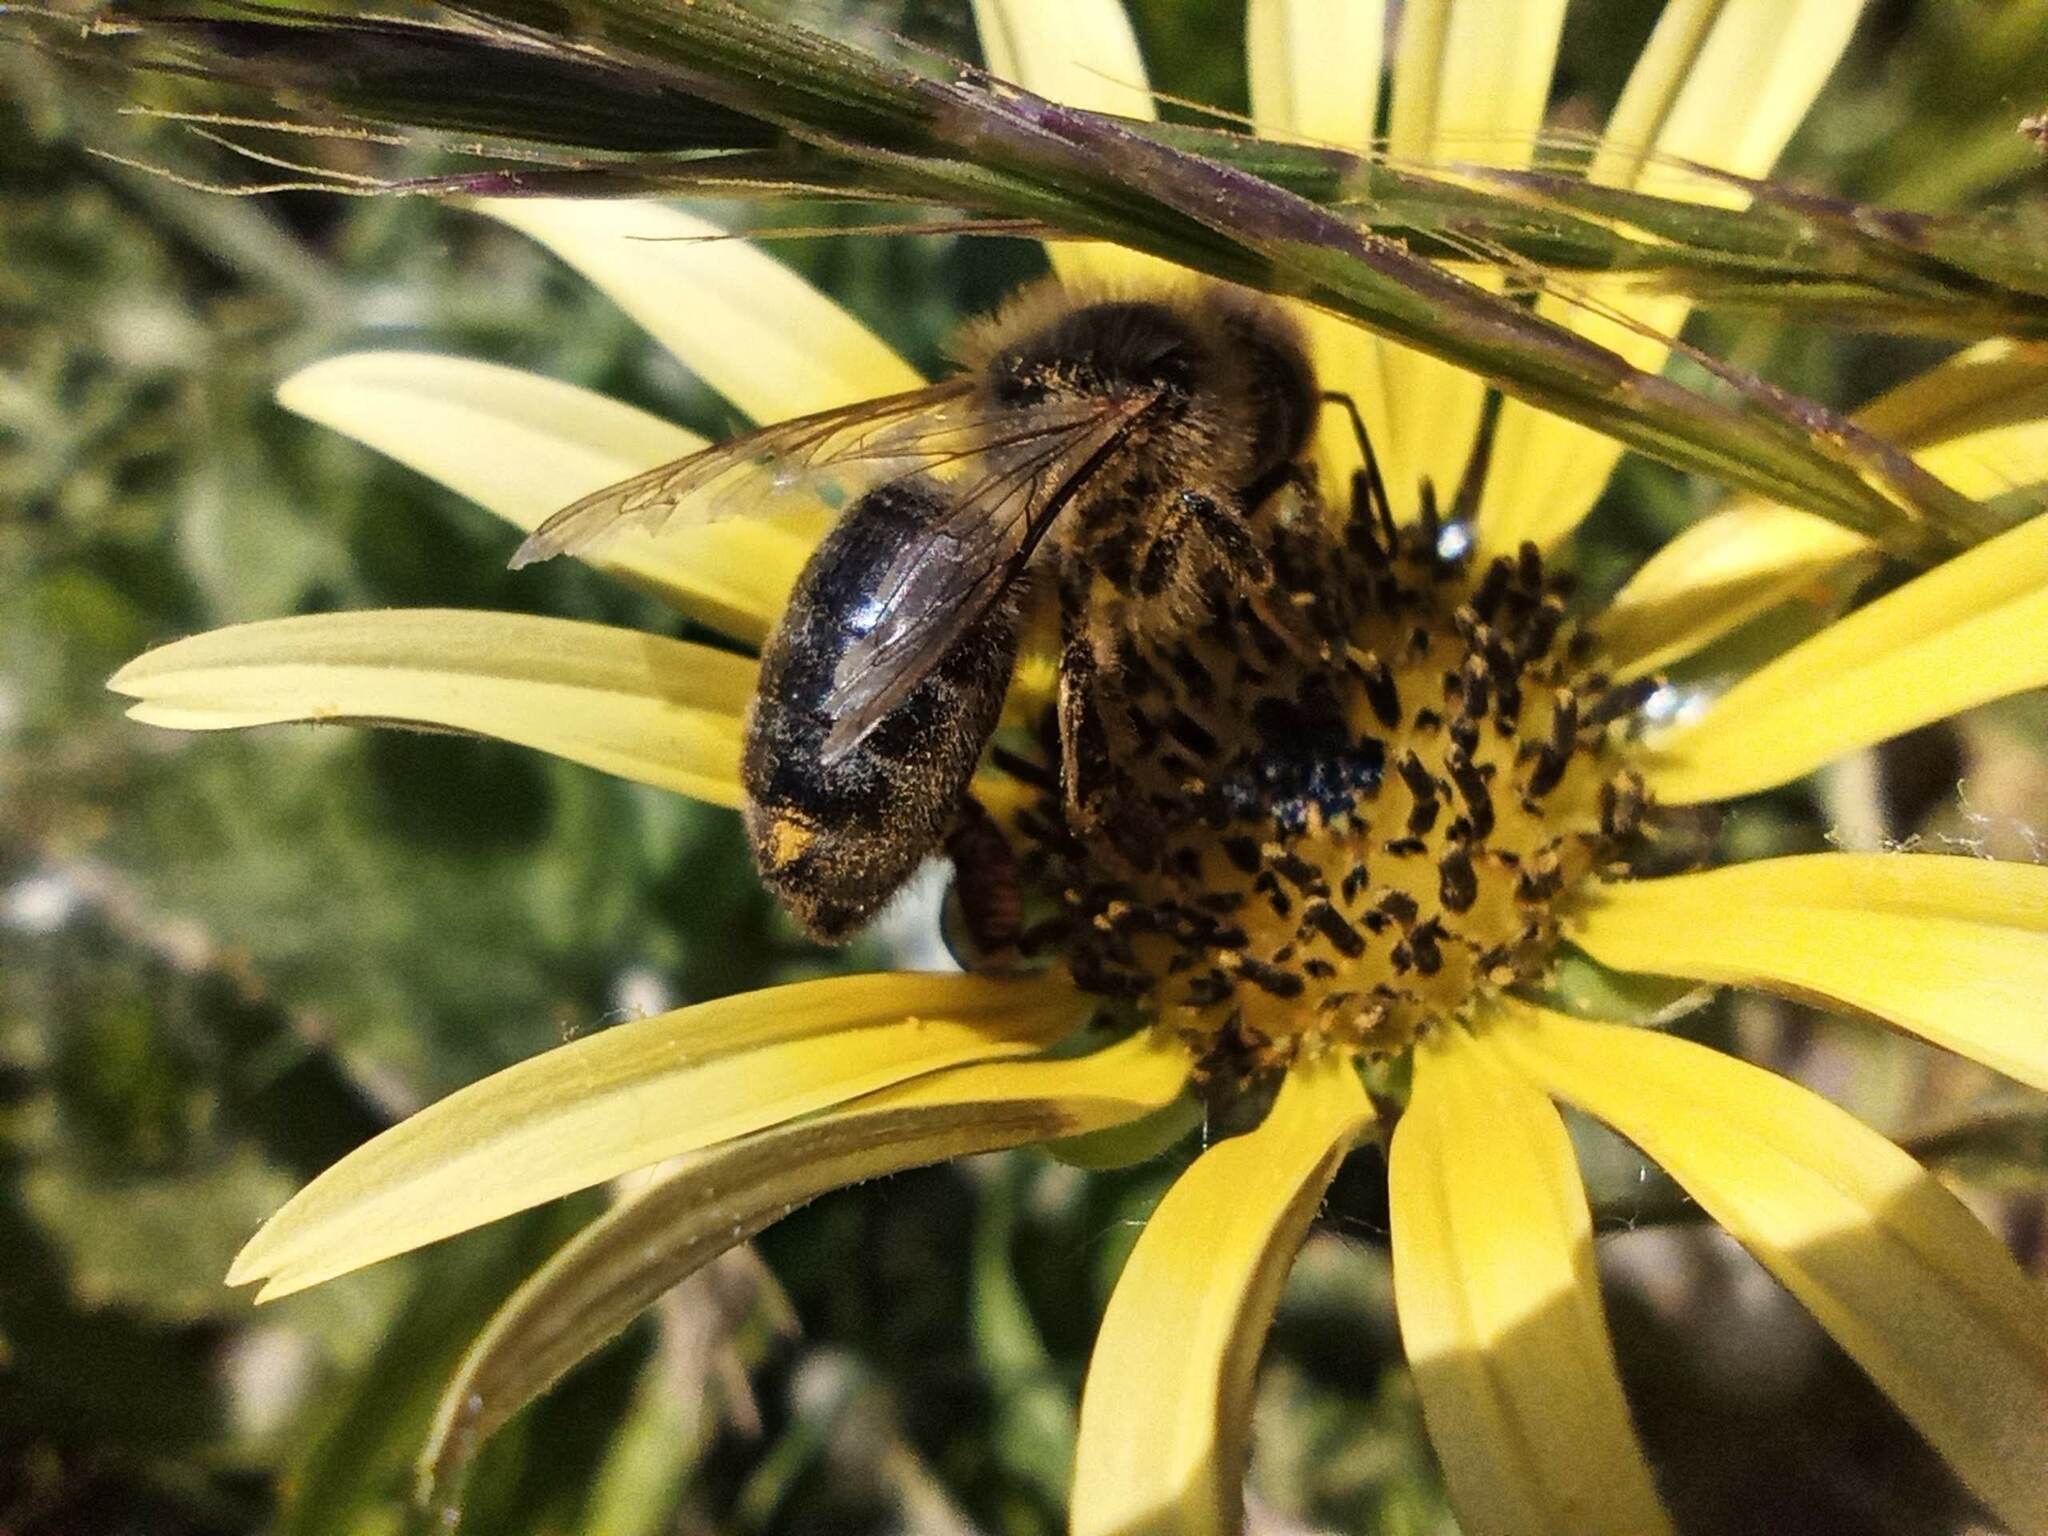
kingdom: Animalia
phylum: Arthropoda
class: Insecta
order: Hymenoptera
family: Apidae
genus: Apis
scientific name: Apis mellifera
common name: Honey bee
